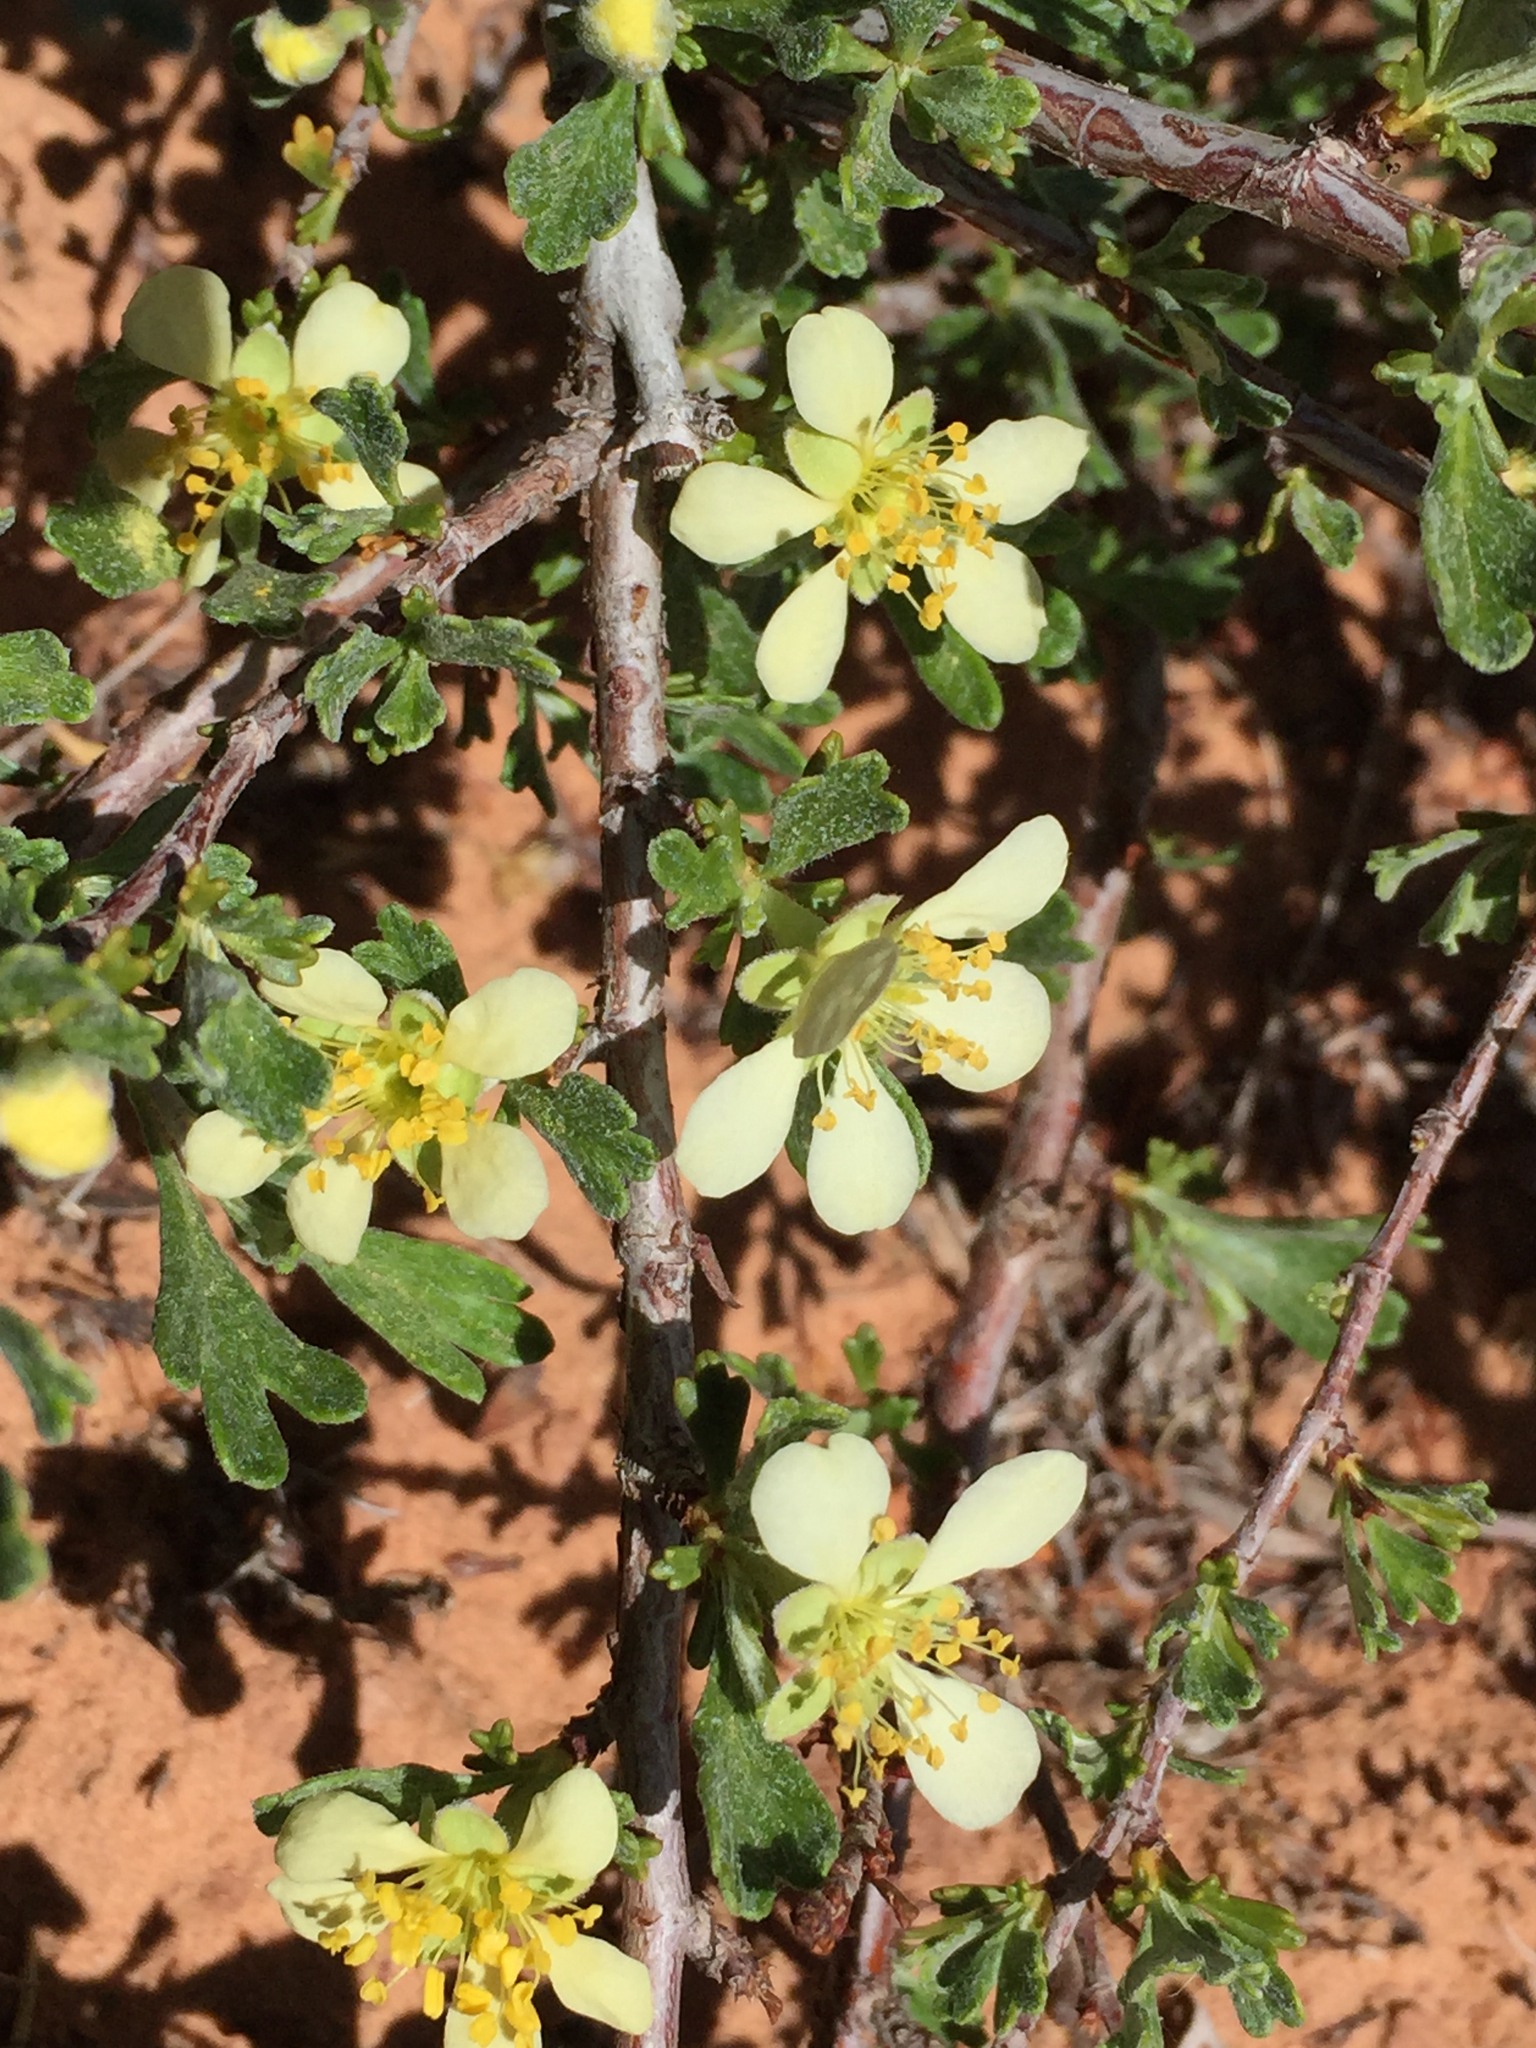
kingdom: Plantae
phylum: Tracheophyta
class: Magnoliopsida
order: Rosales
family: Rosaceae
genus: Purshia
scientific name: Purshia tridentata
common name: Antelope bitterbrush
